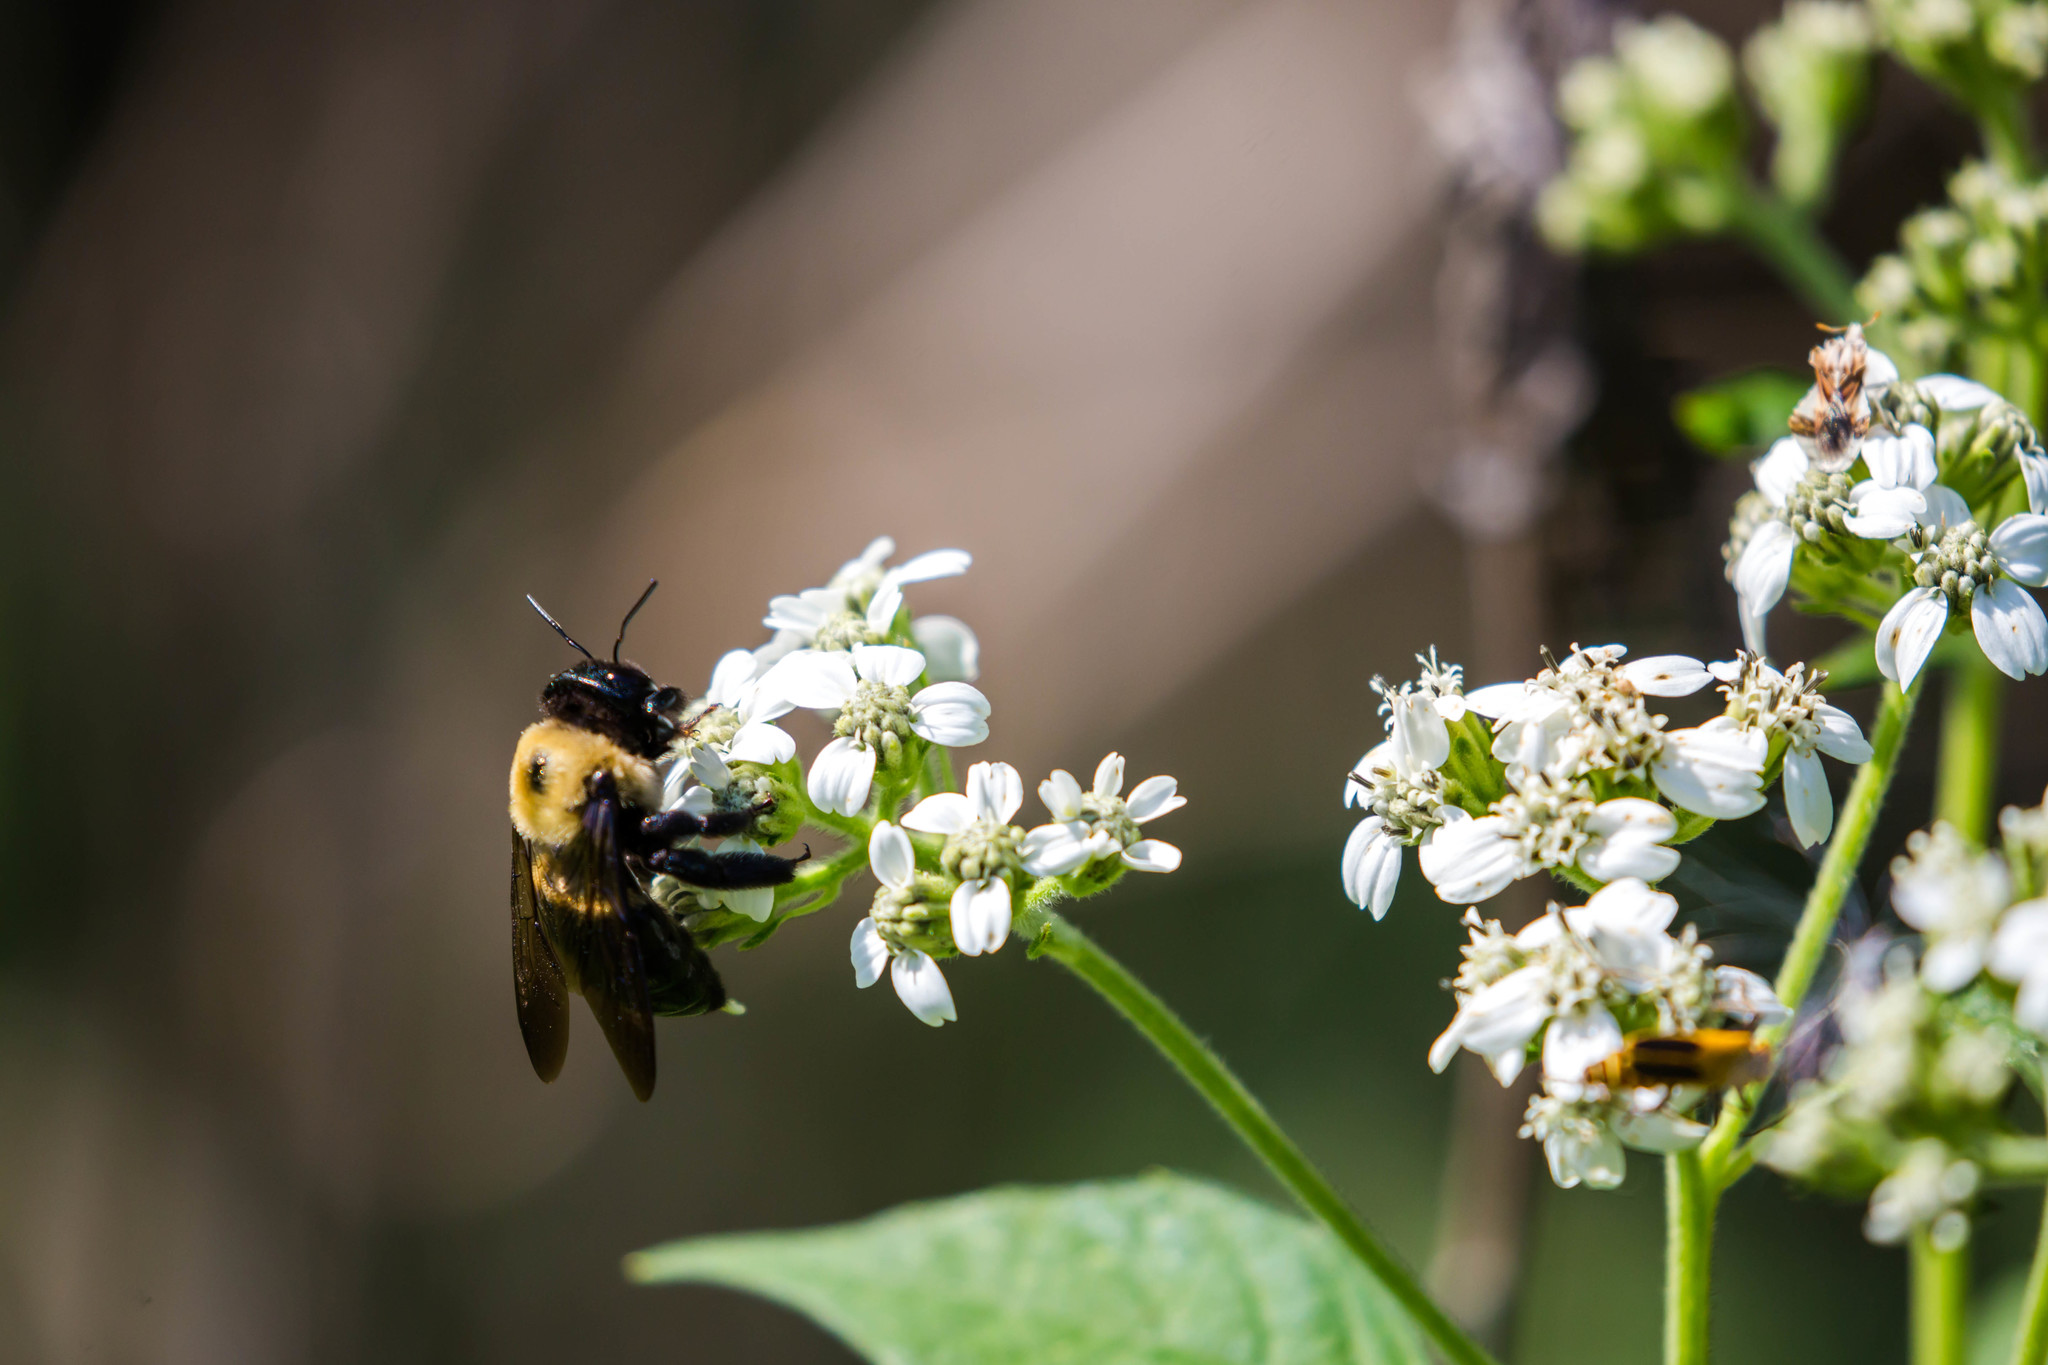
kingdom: Animalia
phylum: Arthropoda
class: Insecta
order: Hymenoptera
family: Apidae
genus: Xylocopa
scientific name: Xylocopa virginica
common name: Carpenter bee
